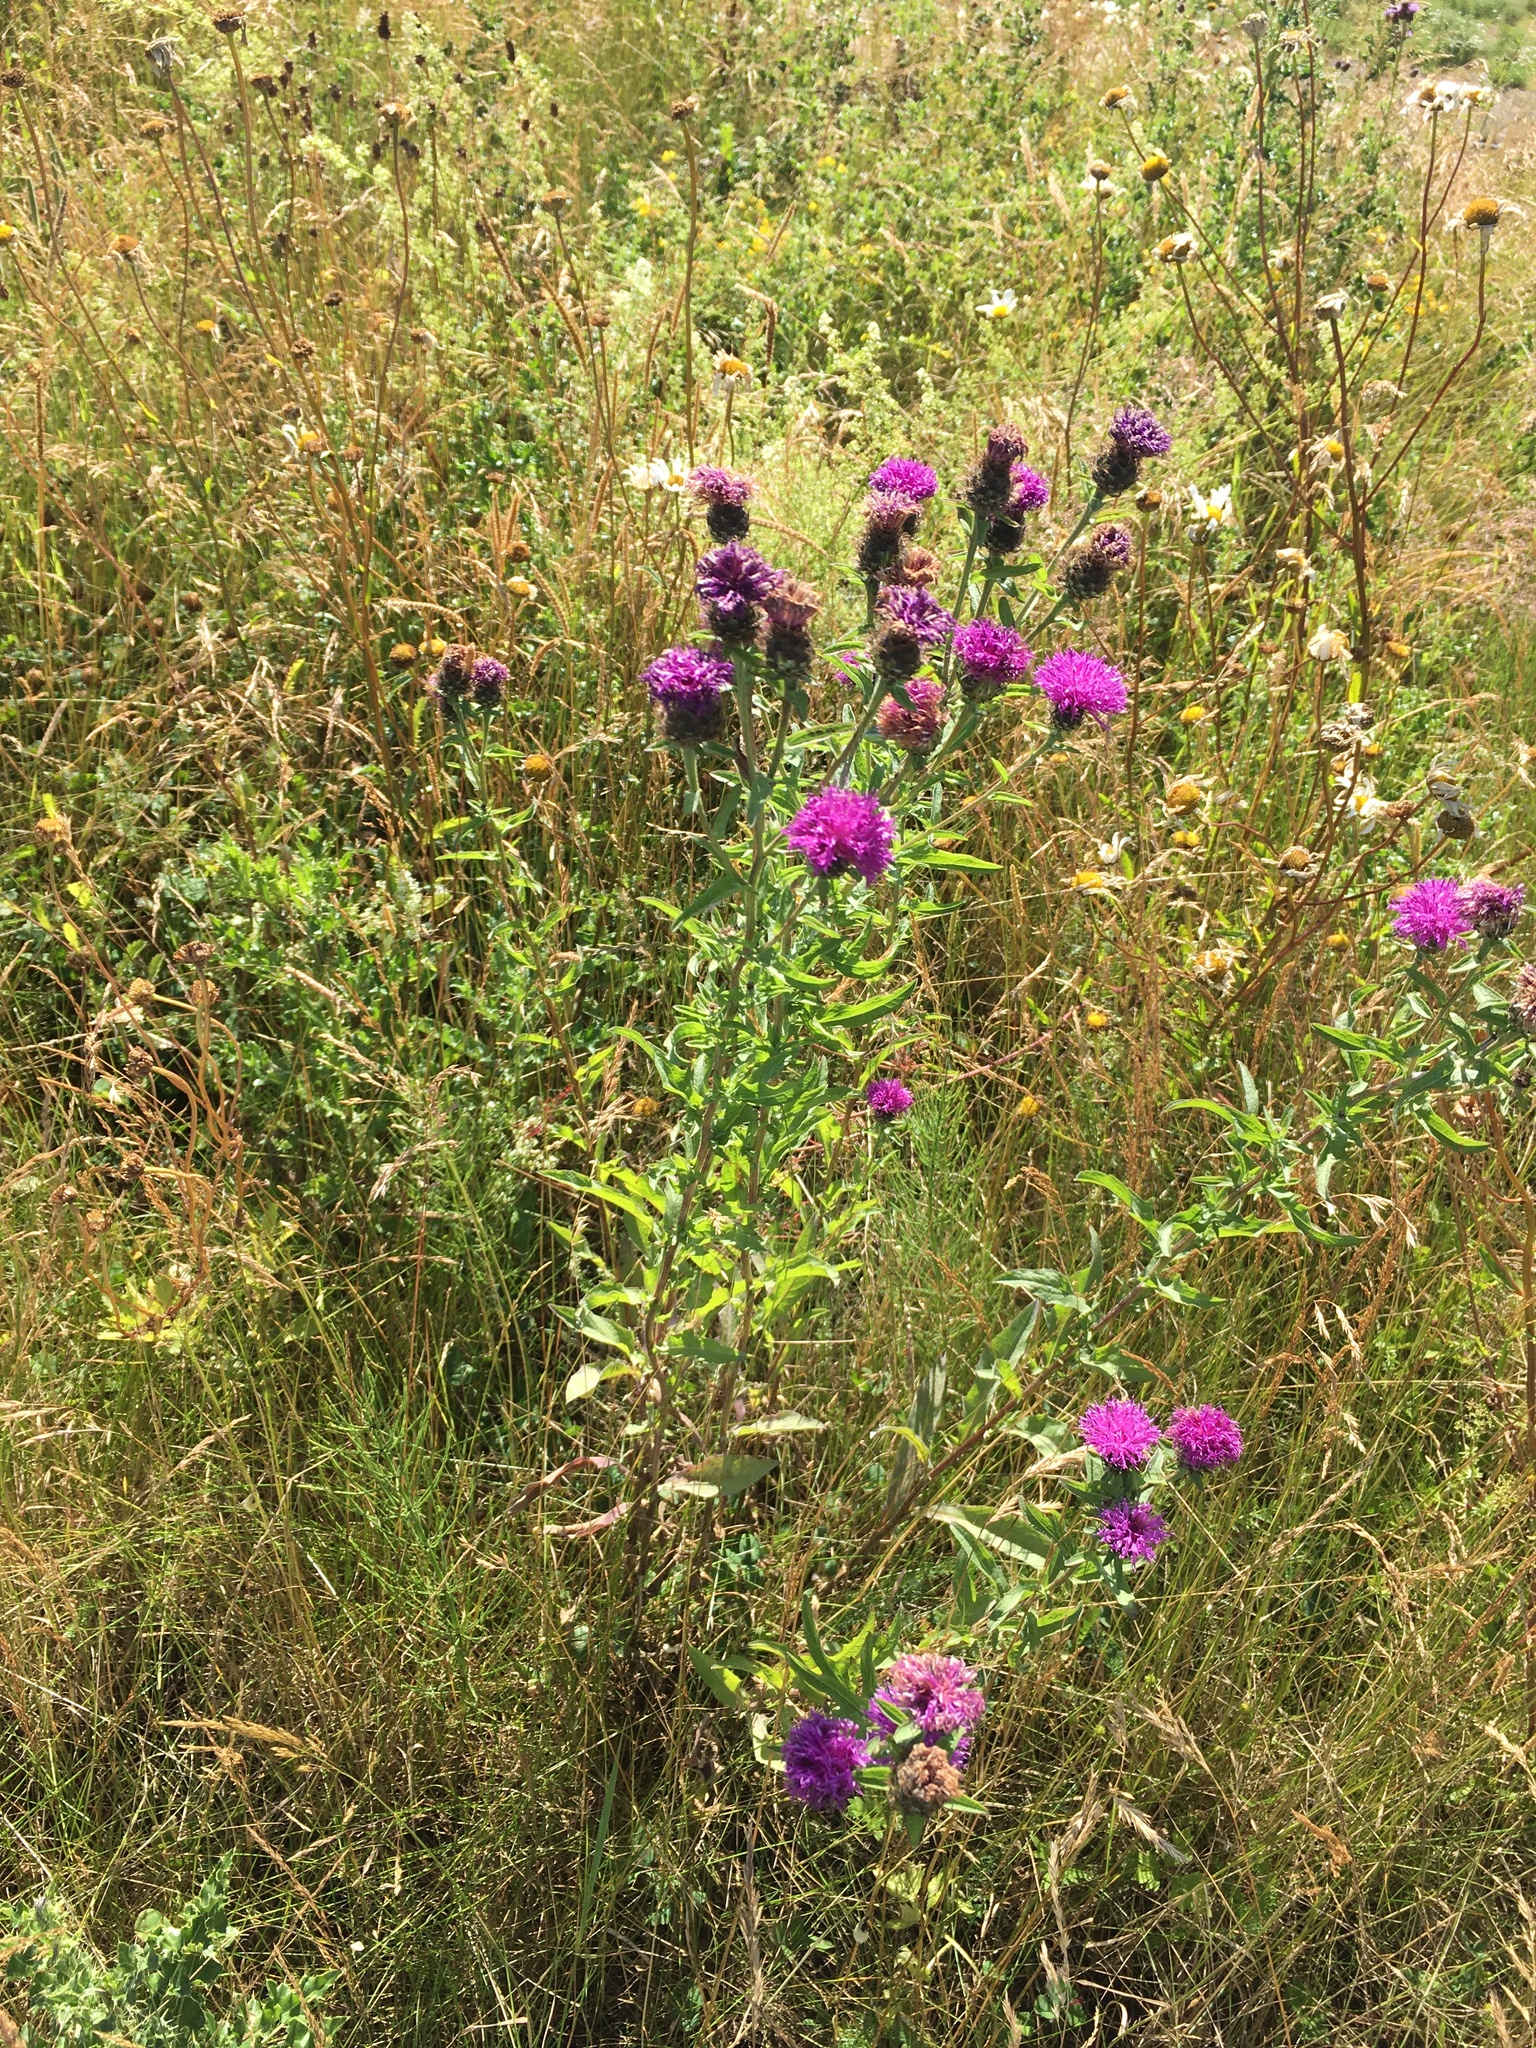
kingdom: Plantae
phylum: Tracheophyta
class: Magnoliopsida
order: Asterales
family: Asteraceae
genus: Centaurea
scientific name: Centaurea nigra
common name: Lesser knapweed
